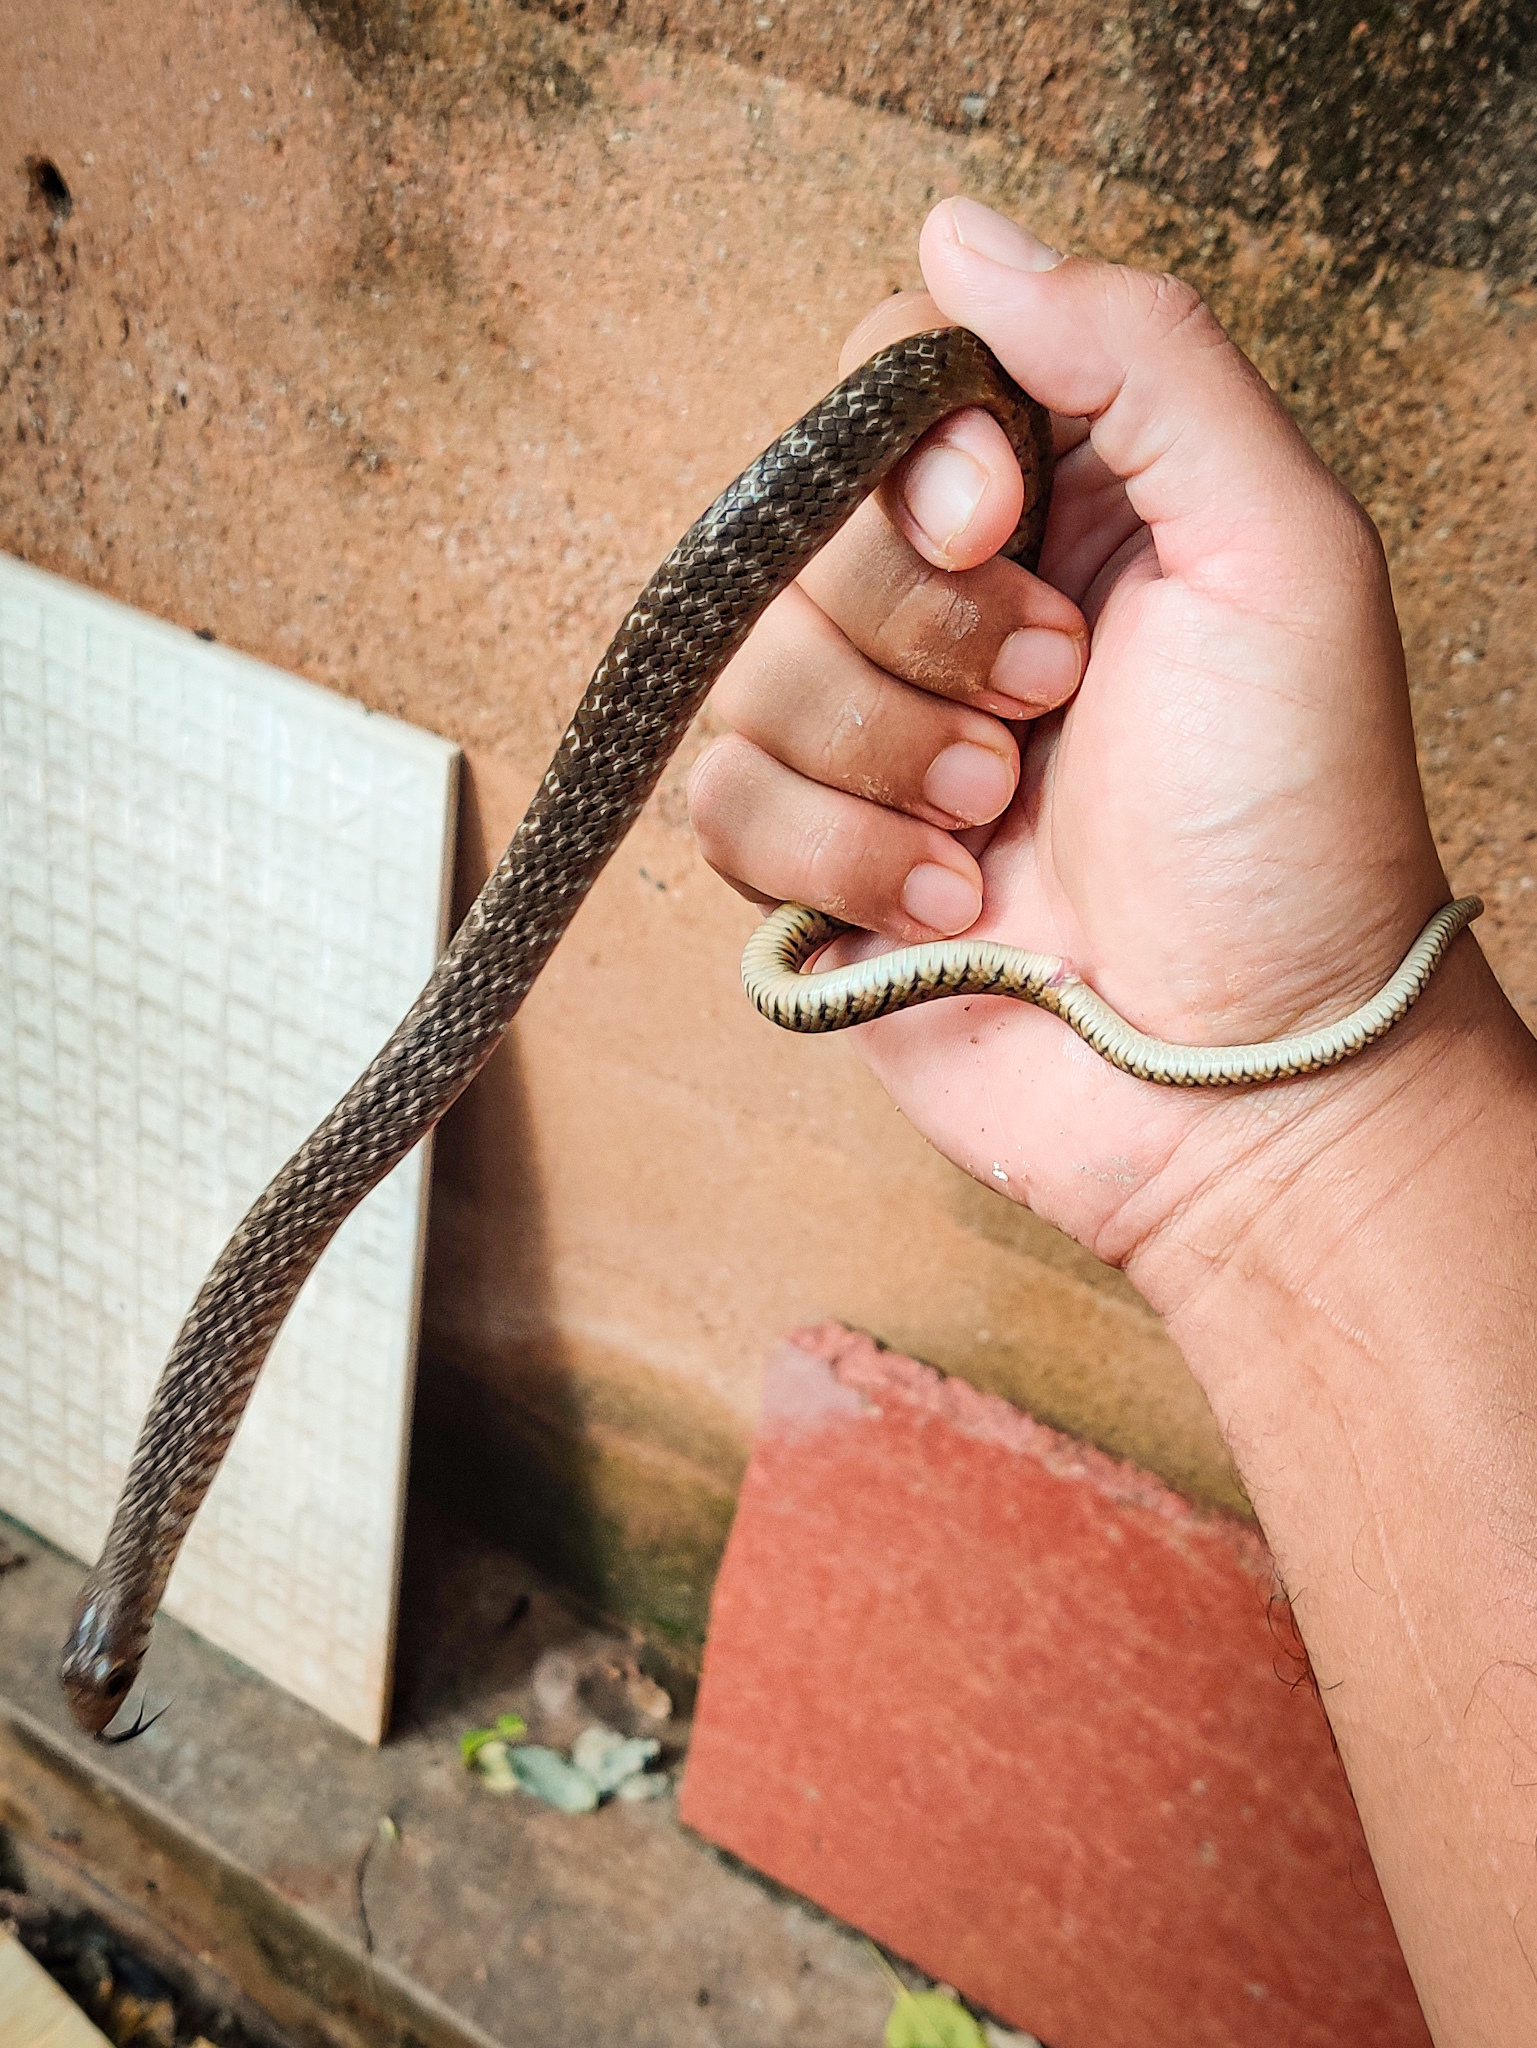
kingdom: Animalia
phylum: Chordata
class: Squamata
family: Colubridae
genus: Ptyas
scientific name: Ptyas mucosa
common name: Oriental ratsnake
